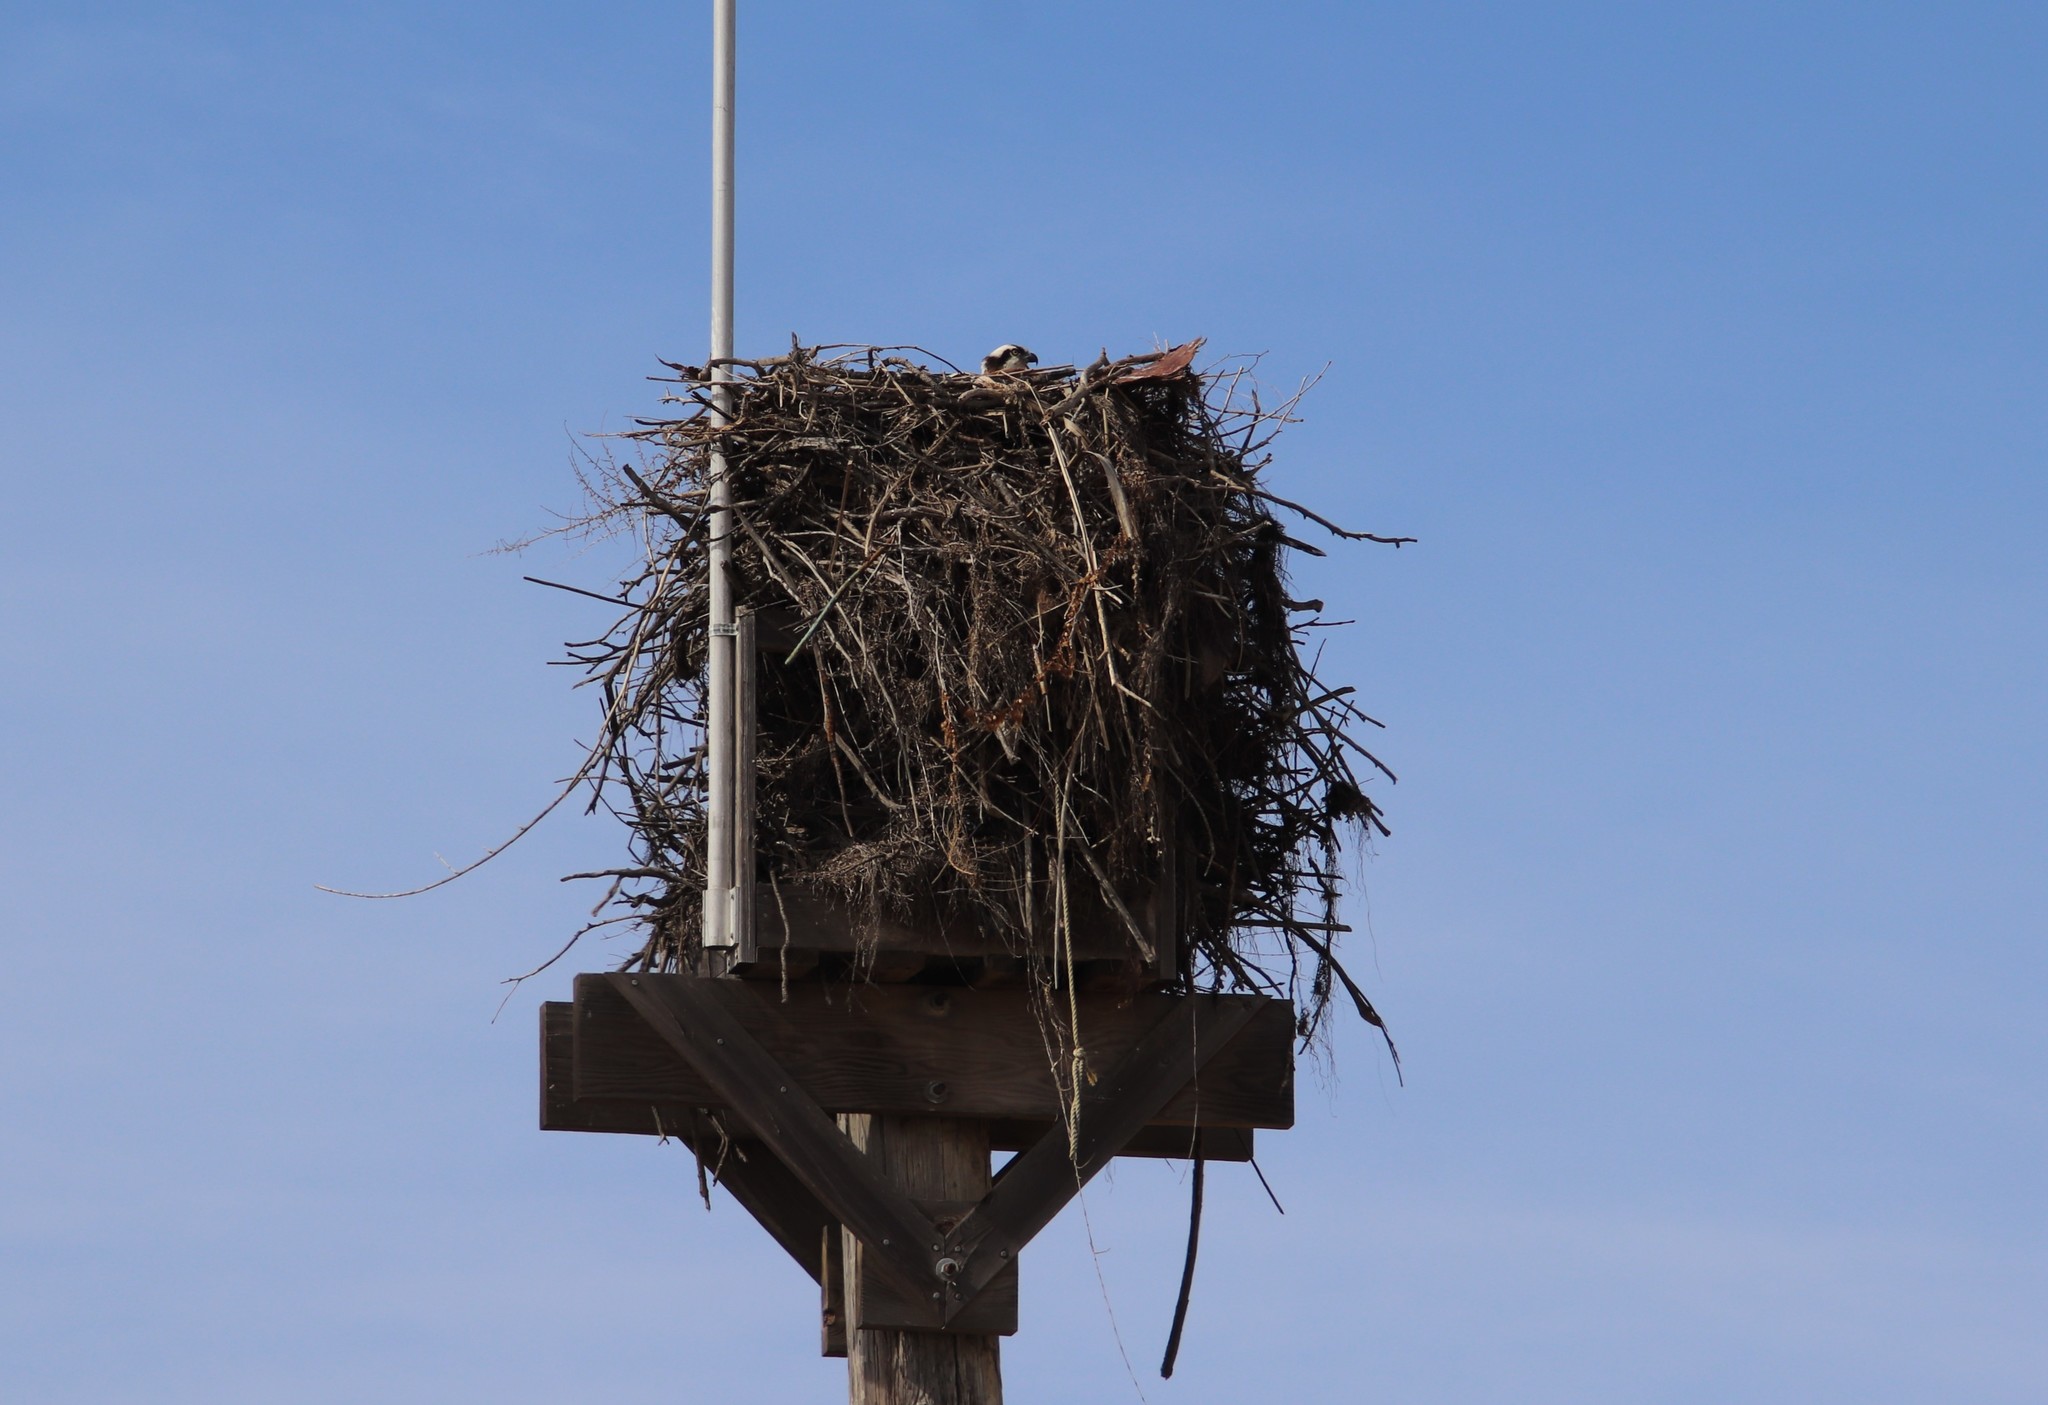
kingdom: Animalia
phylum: Chordata
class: Aves
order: Accipitriformes
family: Pandionidae
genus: Pandion
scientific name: Pandion haliaetus
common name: Osprey
